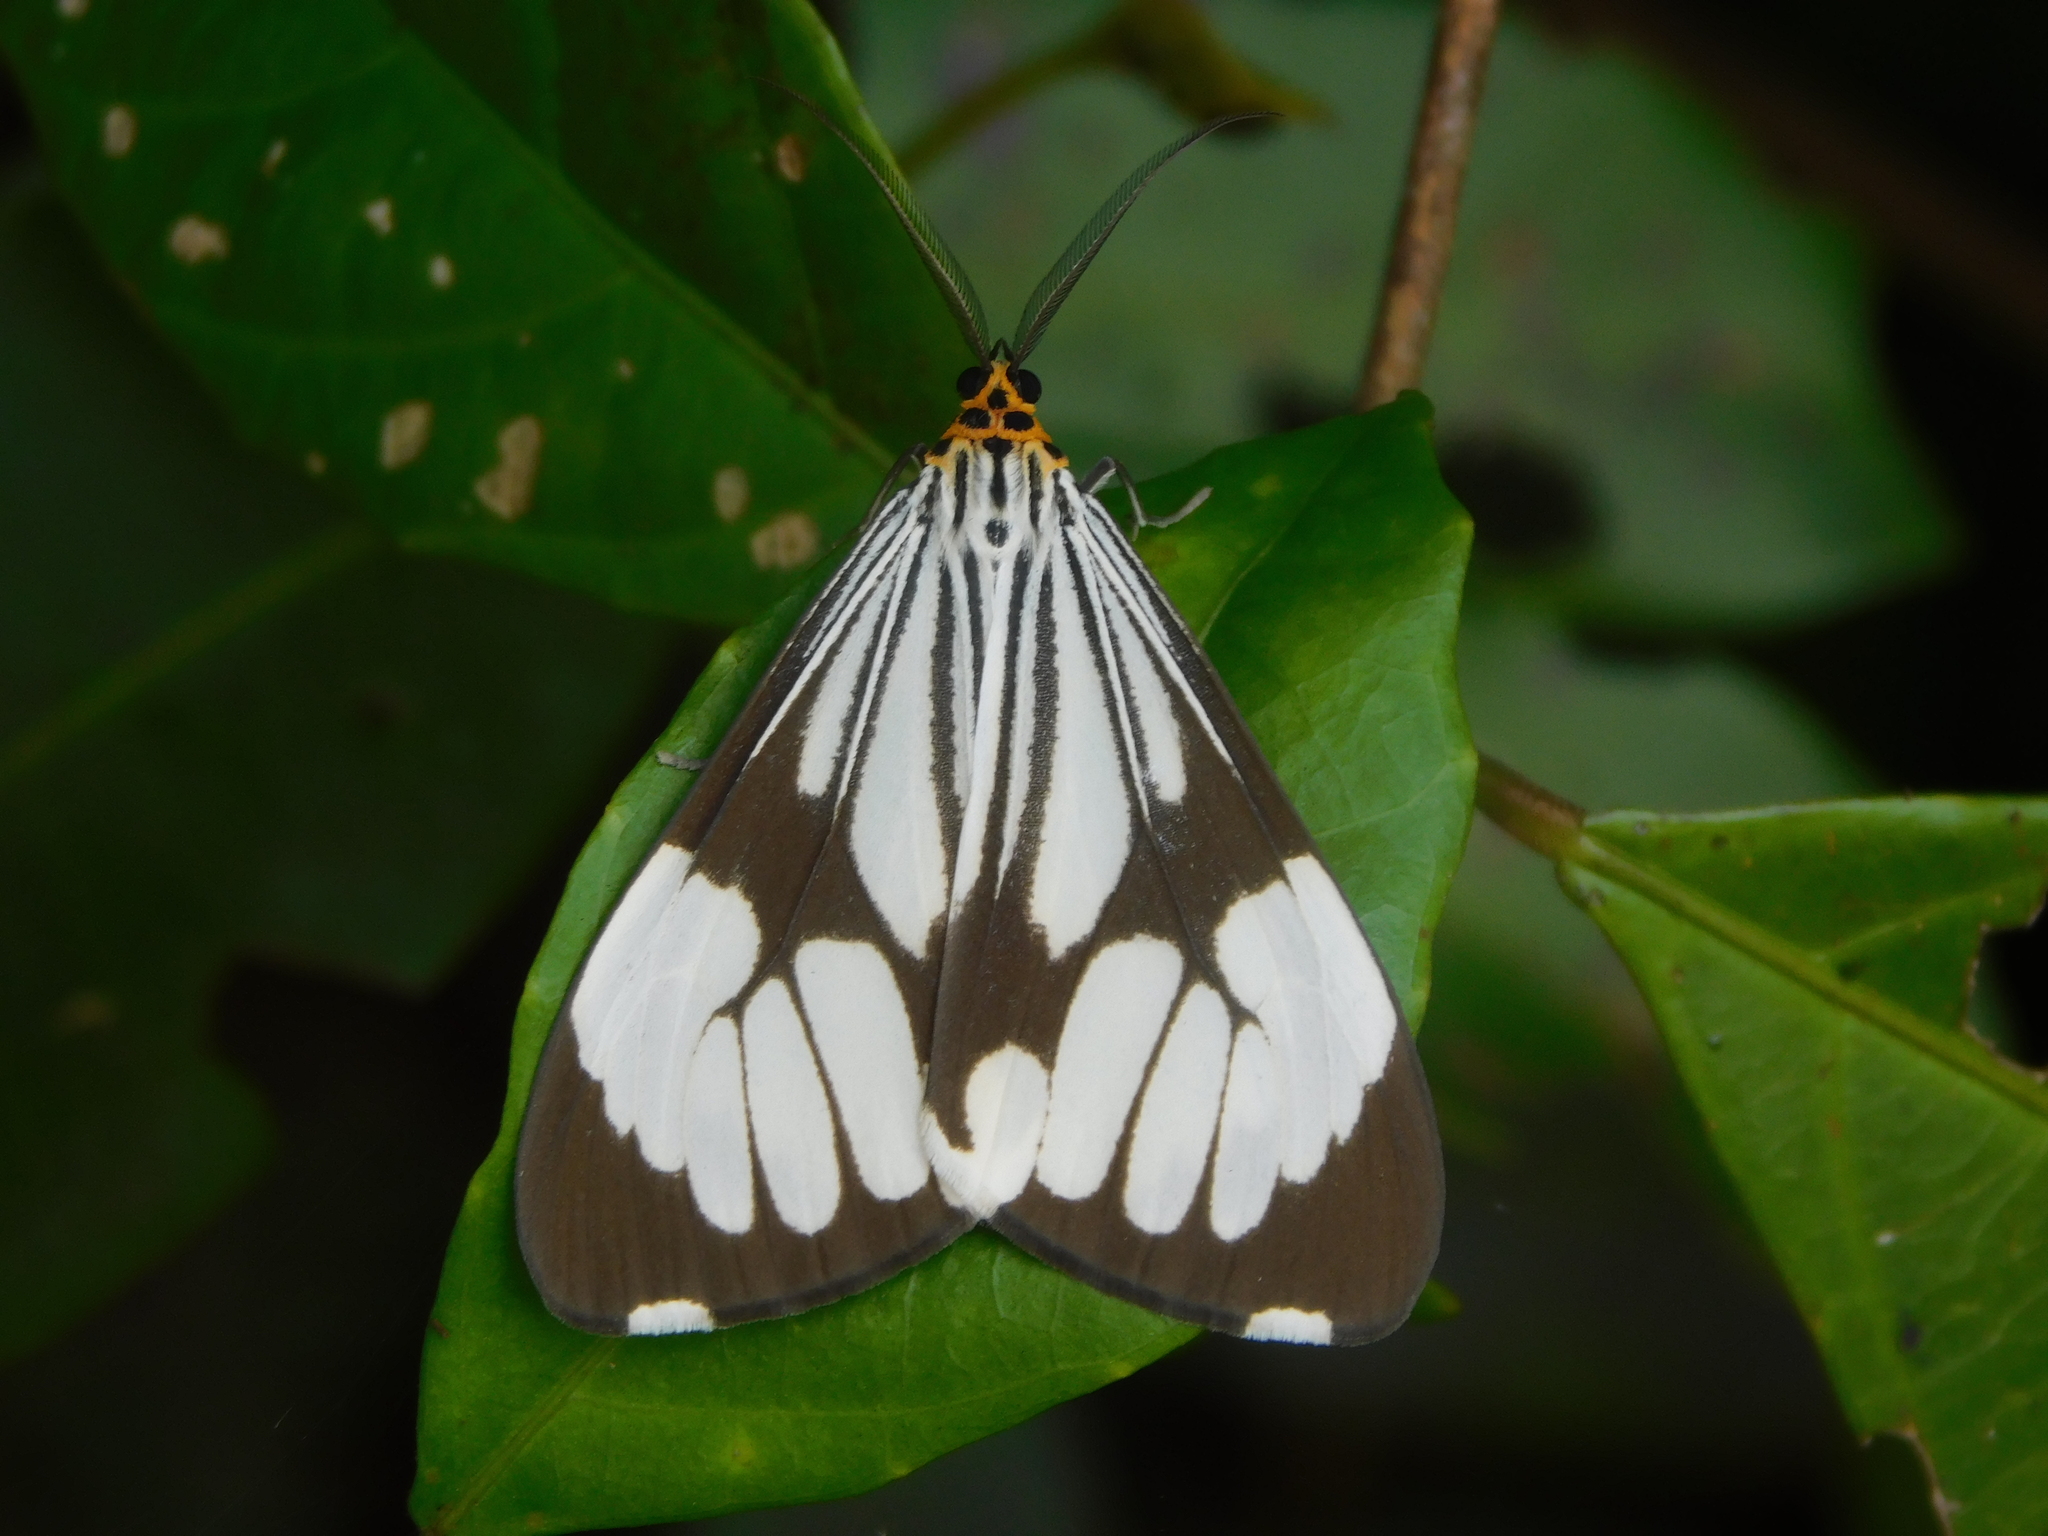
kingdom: Animalia
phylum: Arthropoda
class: Insecta
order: Lepidoptera
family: Erebidae
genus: Nyctemera
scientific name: Nyctemera coleta
